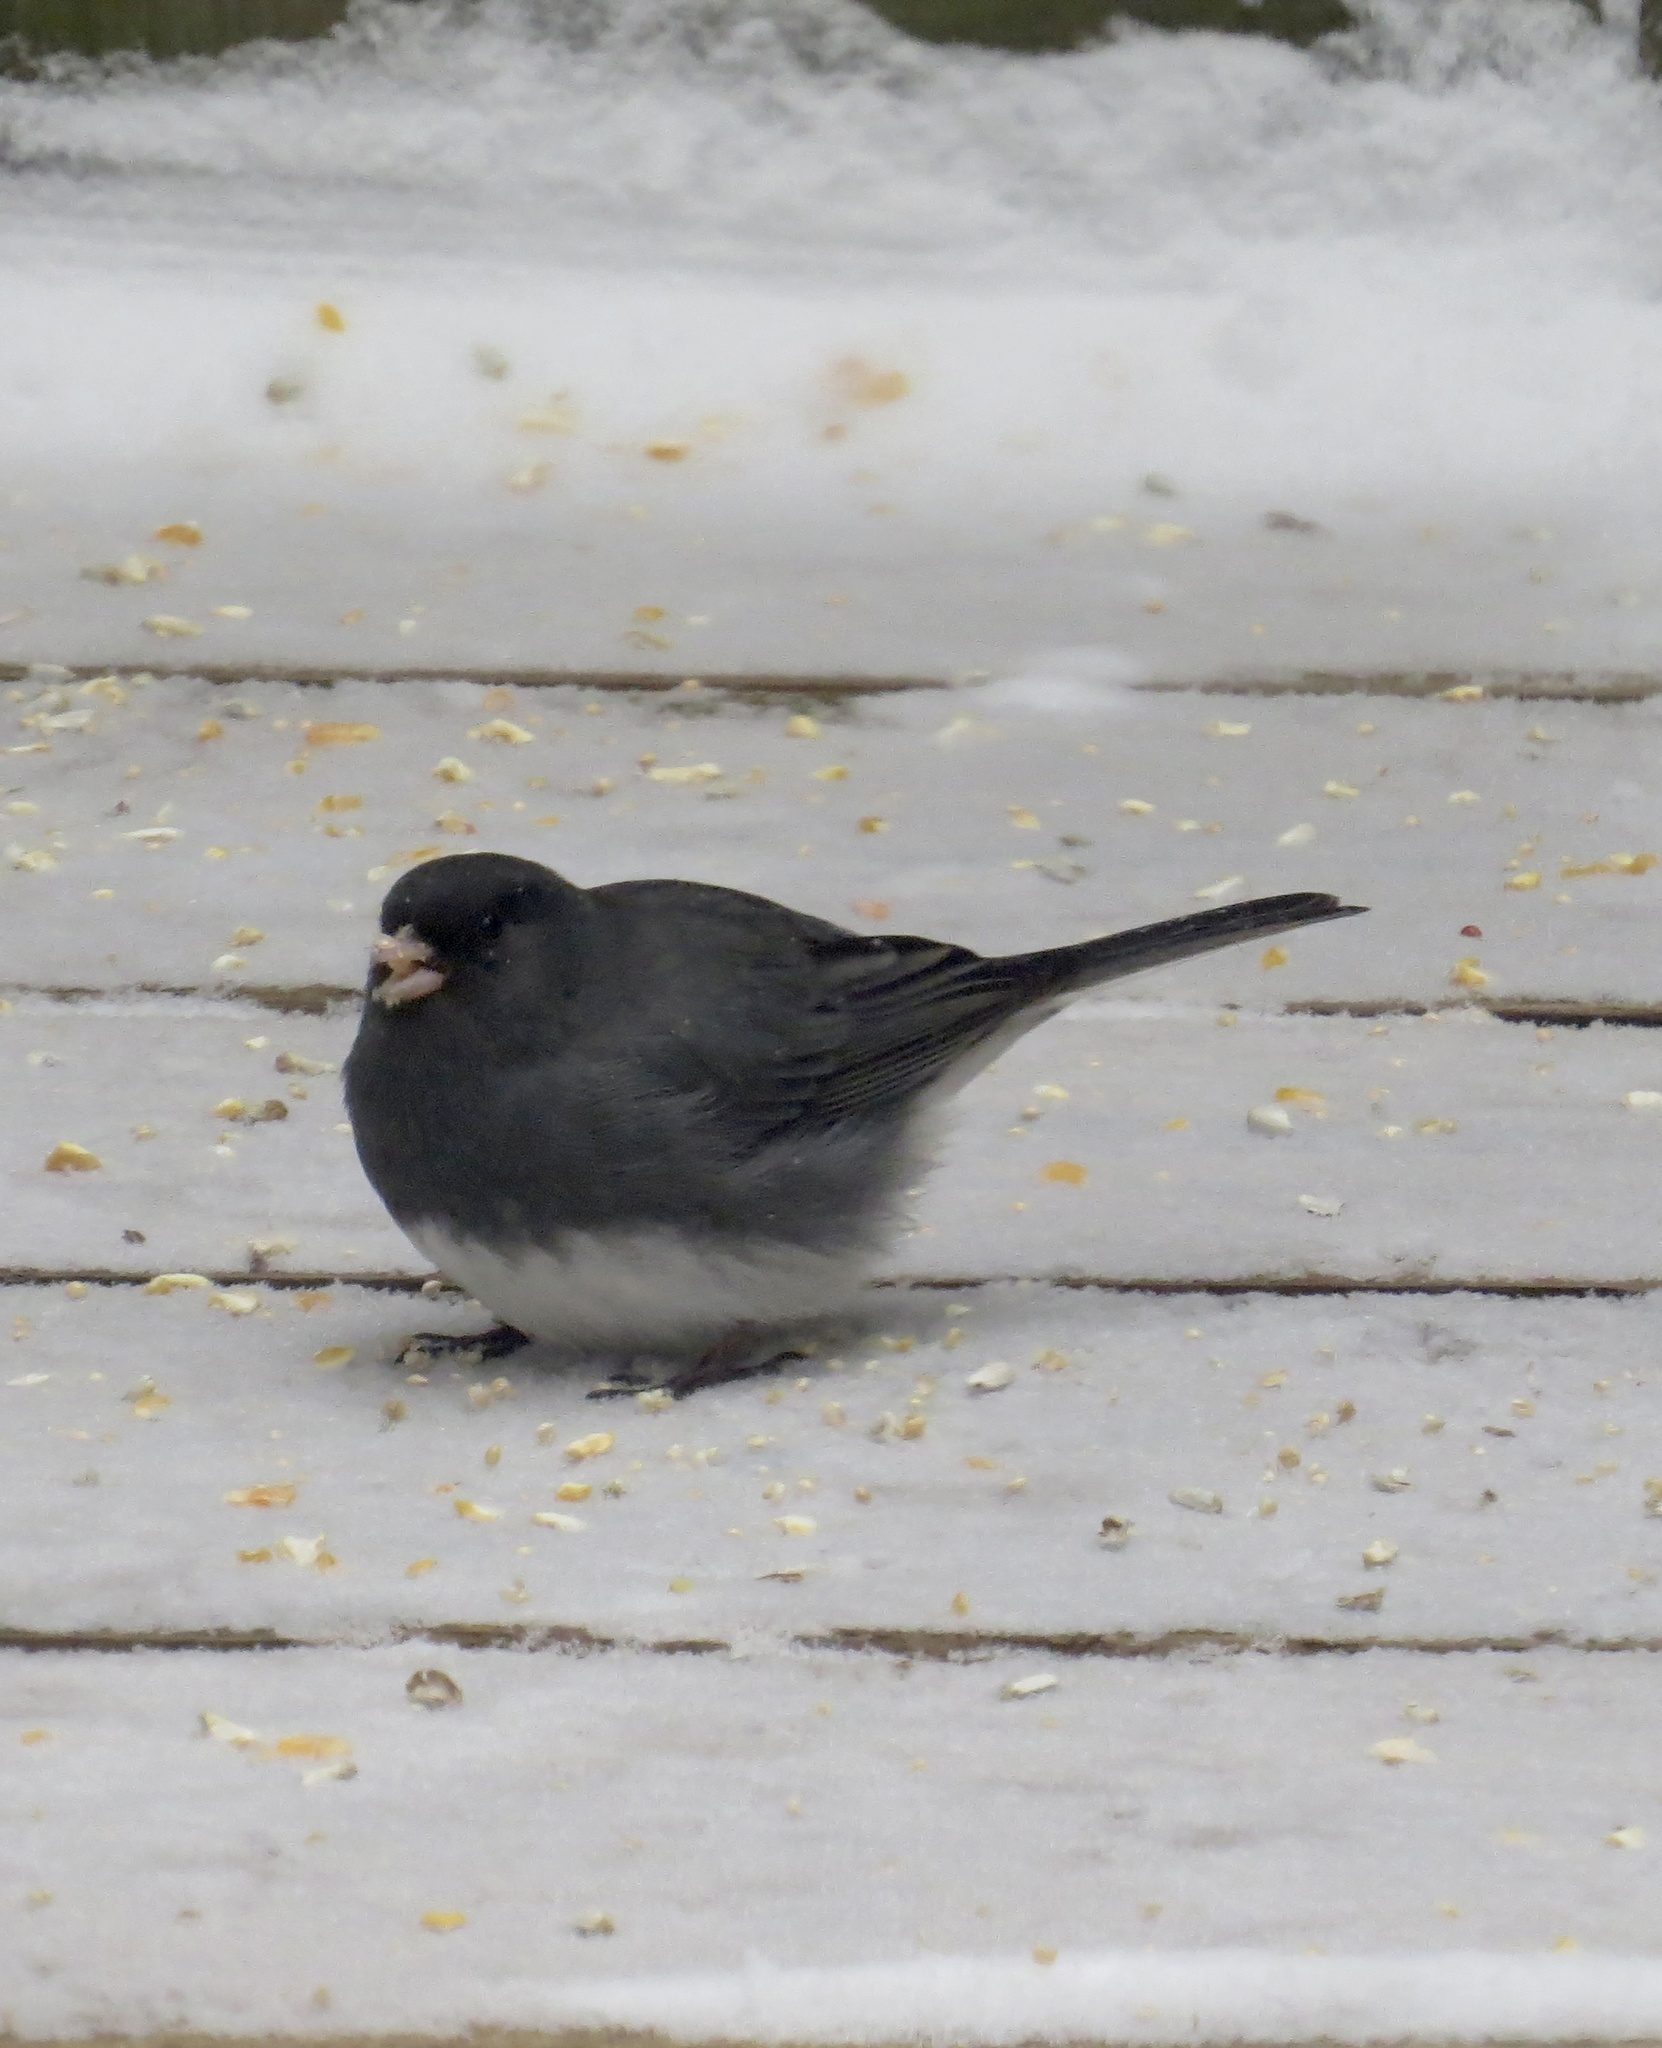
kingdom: Animalia
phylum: Chordata
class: Aves
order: Passeriformes
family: Passerellidae
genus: Junco
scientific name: Junco hyemalis
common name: Dark-eyed junco
